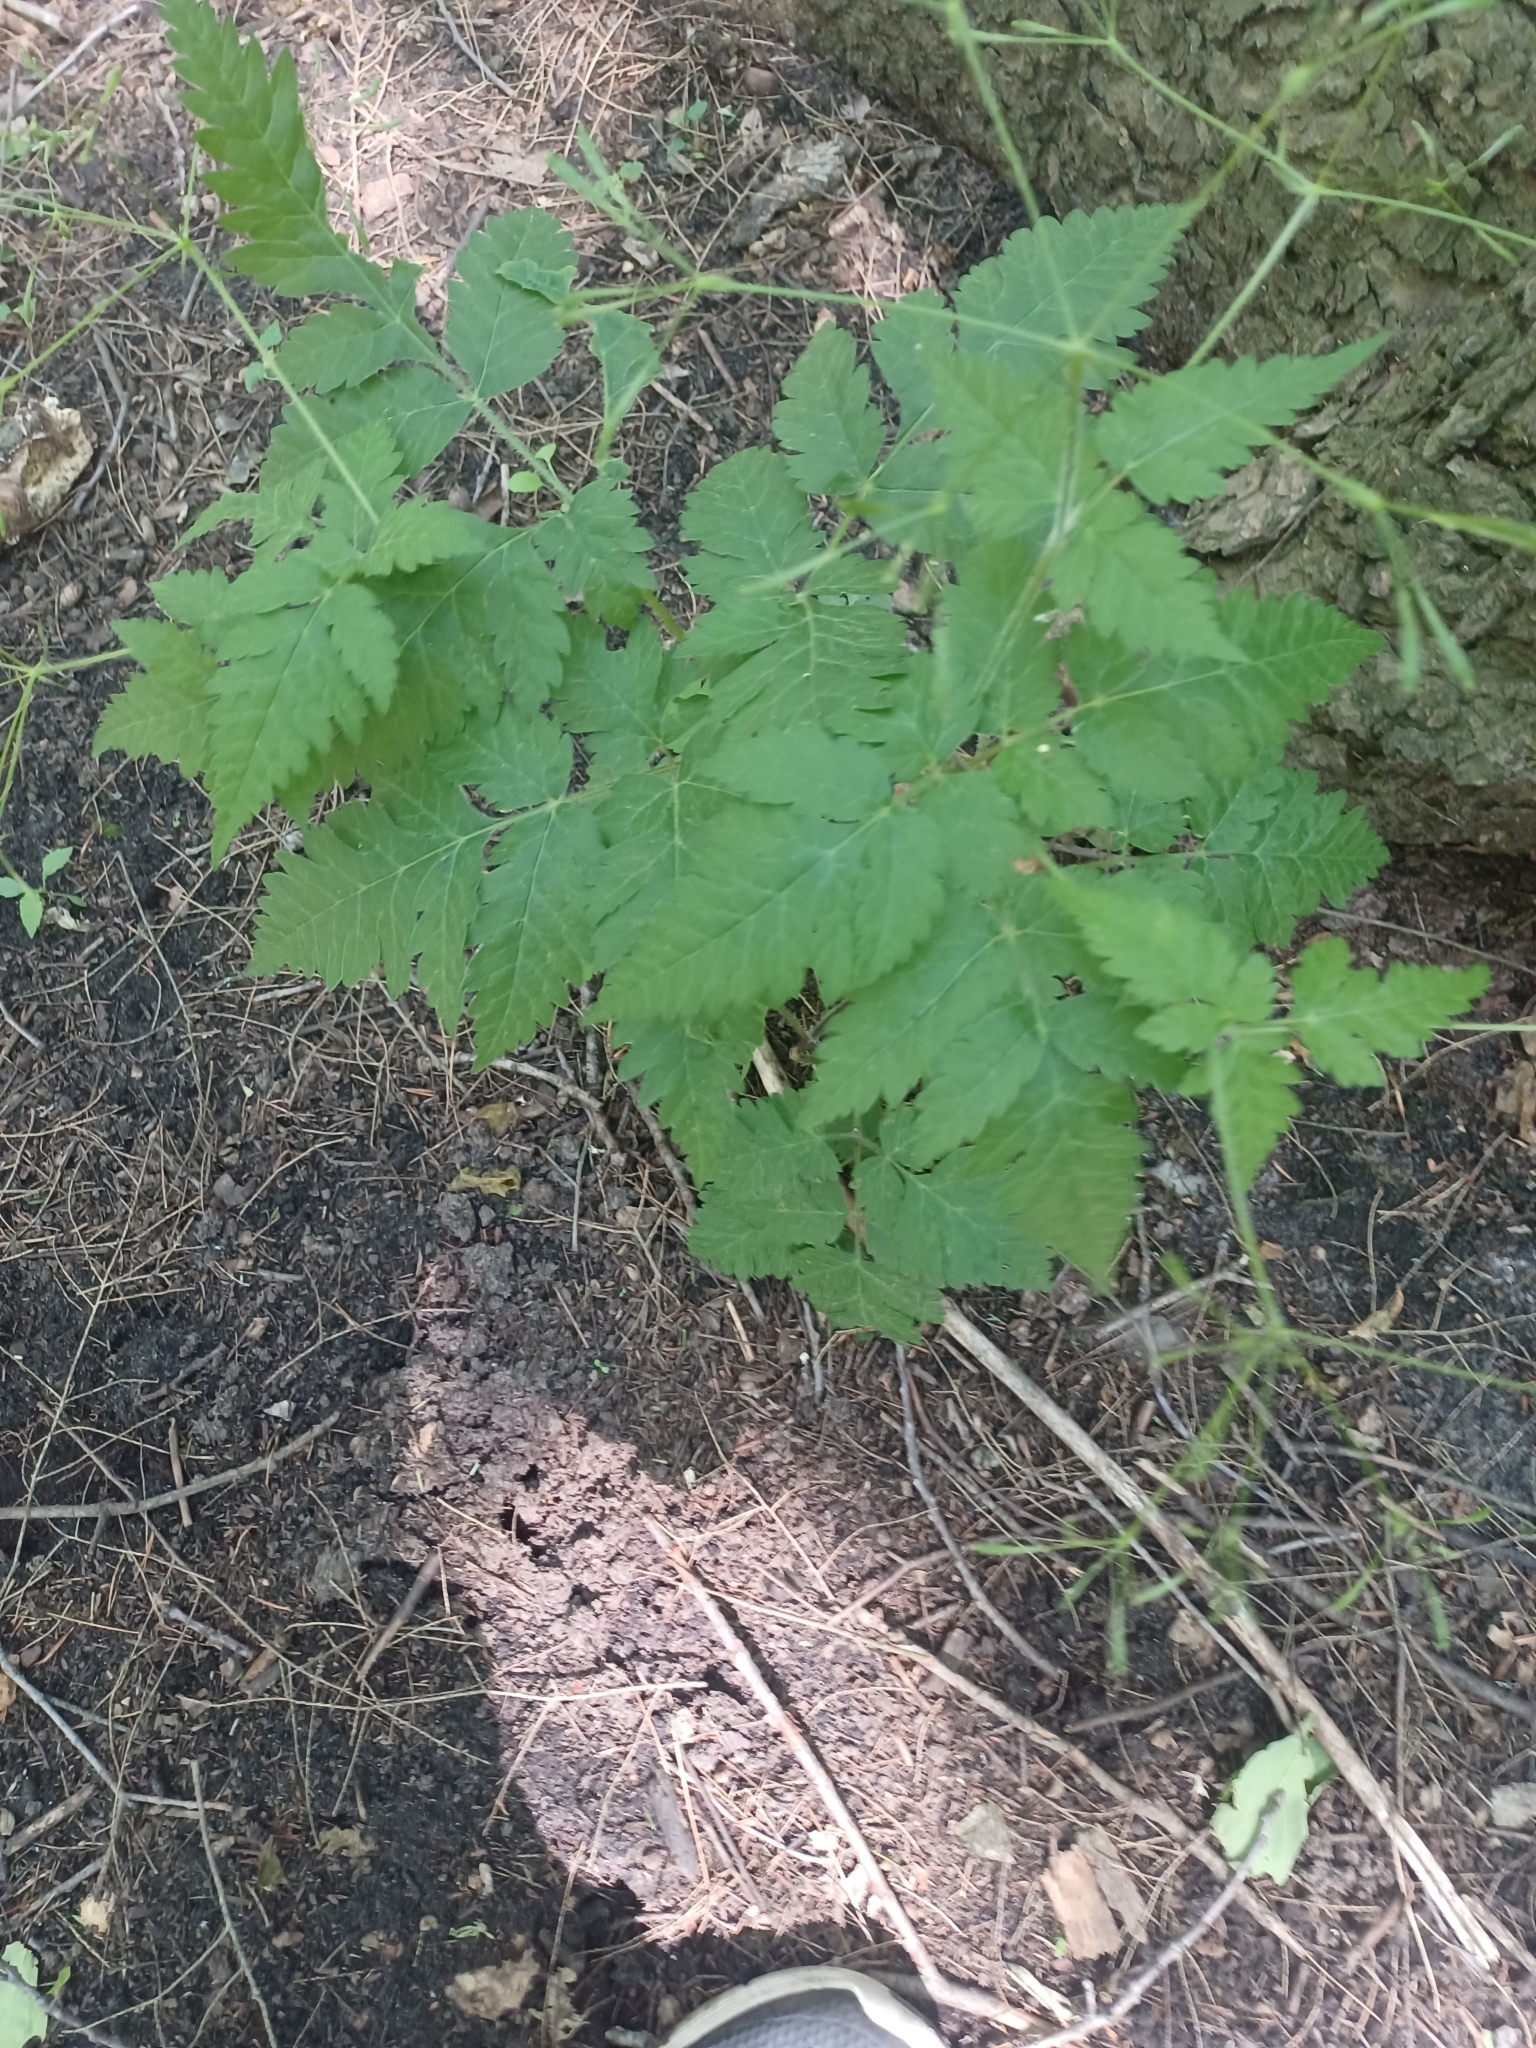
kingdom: Plantae
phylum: Tracheophyta
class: Magnoliopsida
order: Apiales
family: Apiaceae
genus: Osmorhiza
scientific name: Osmorhiza claytonii
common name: Hairy sweet cicely
